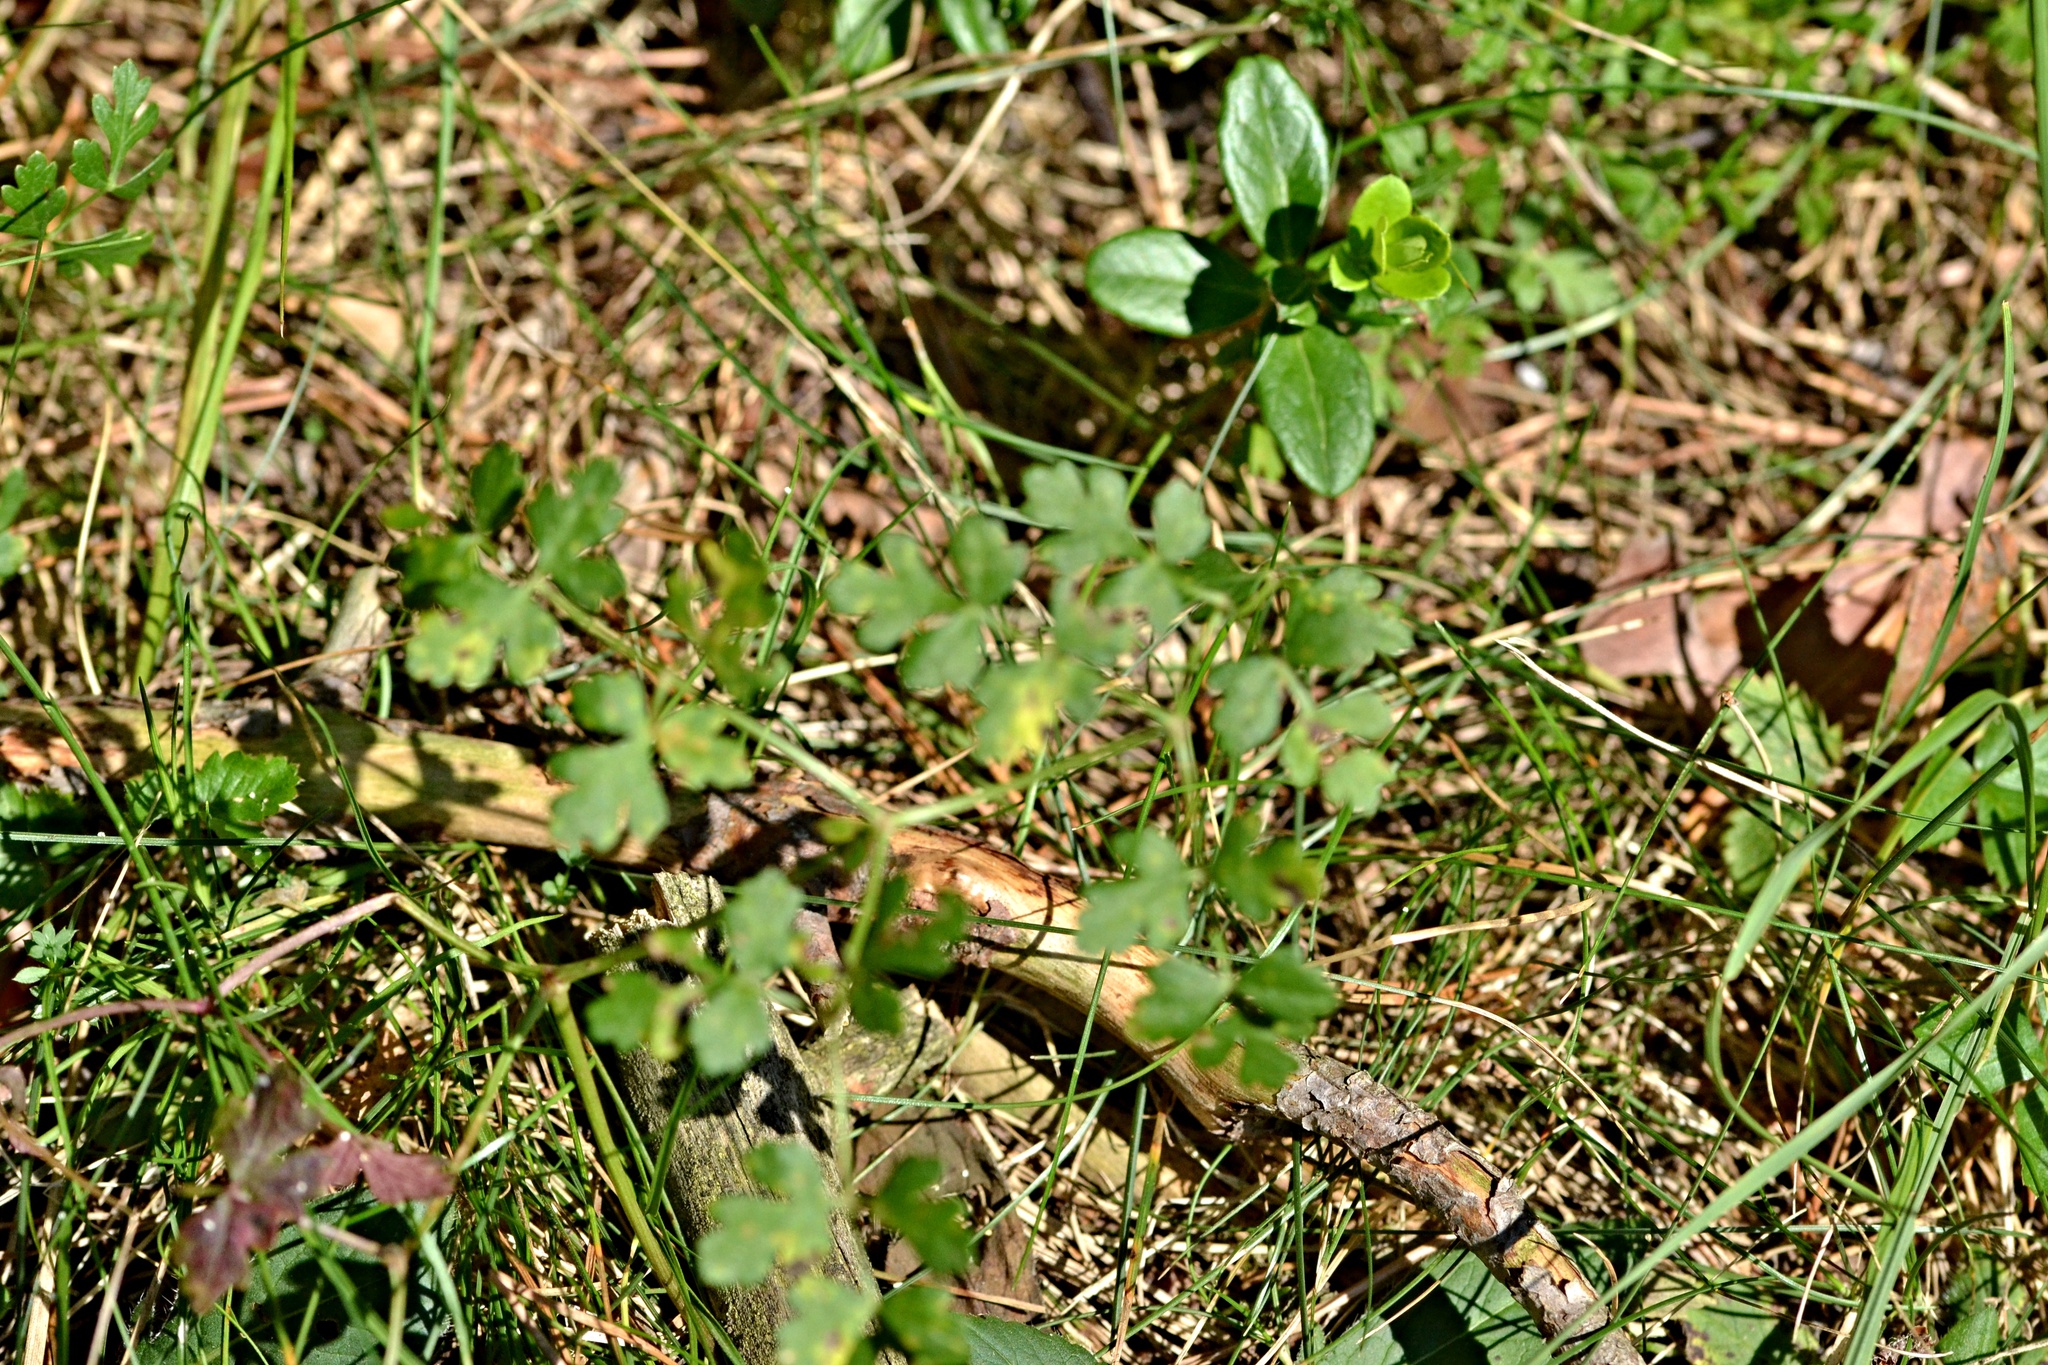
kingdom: Plantae
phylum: Tracheophyta
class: Magnoliopsida
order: Apiales
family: Apiaceae
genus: Oreoselinum
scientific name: Oreoselinum nigrum
